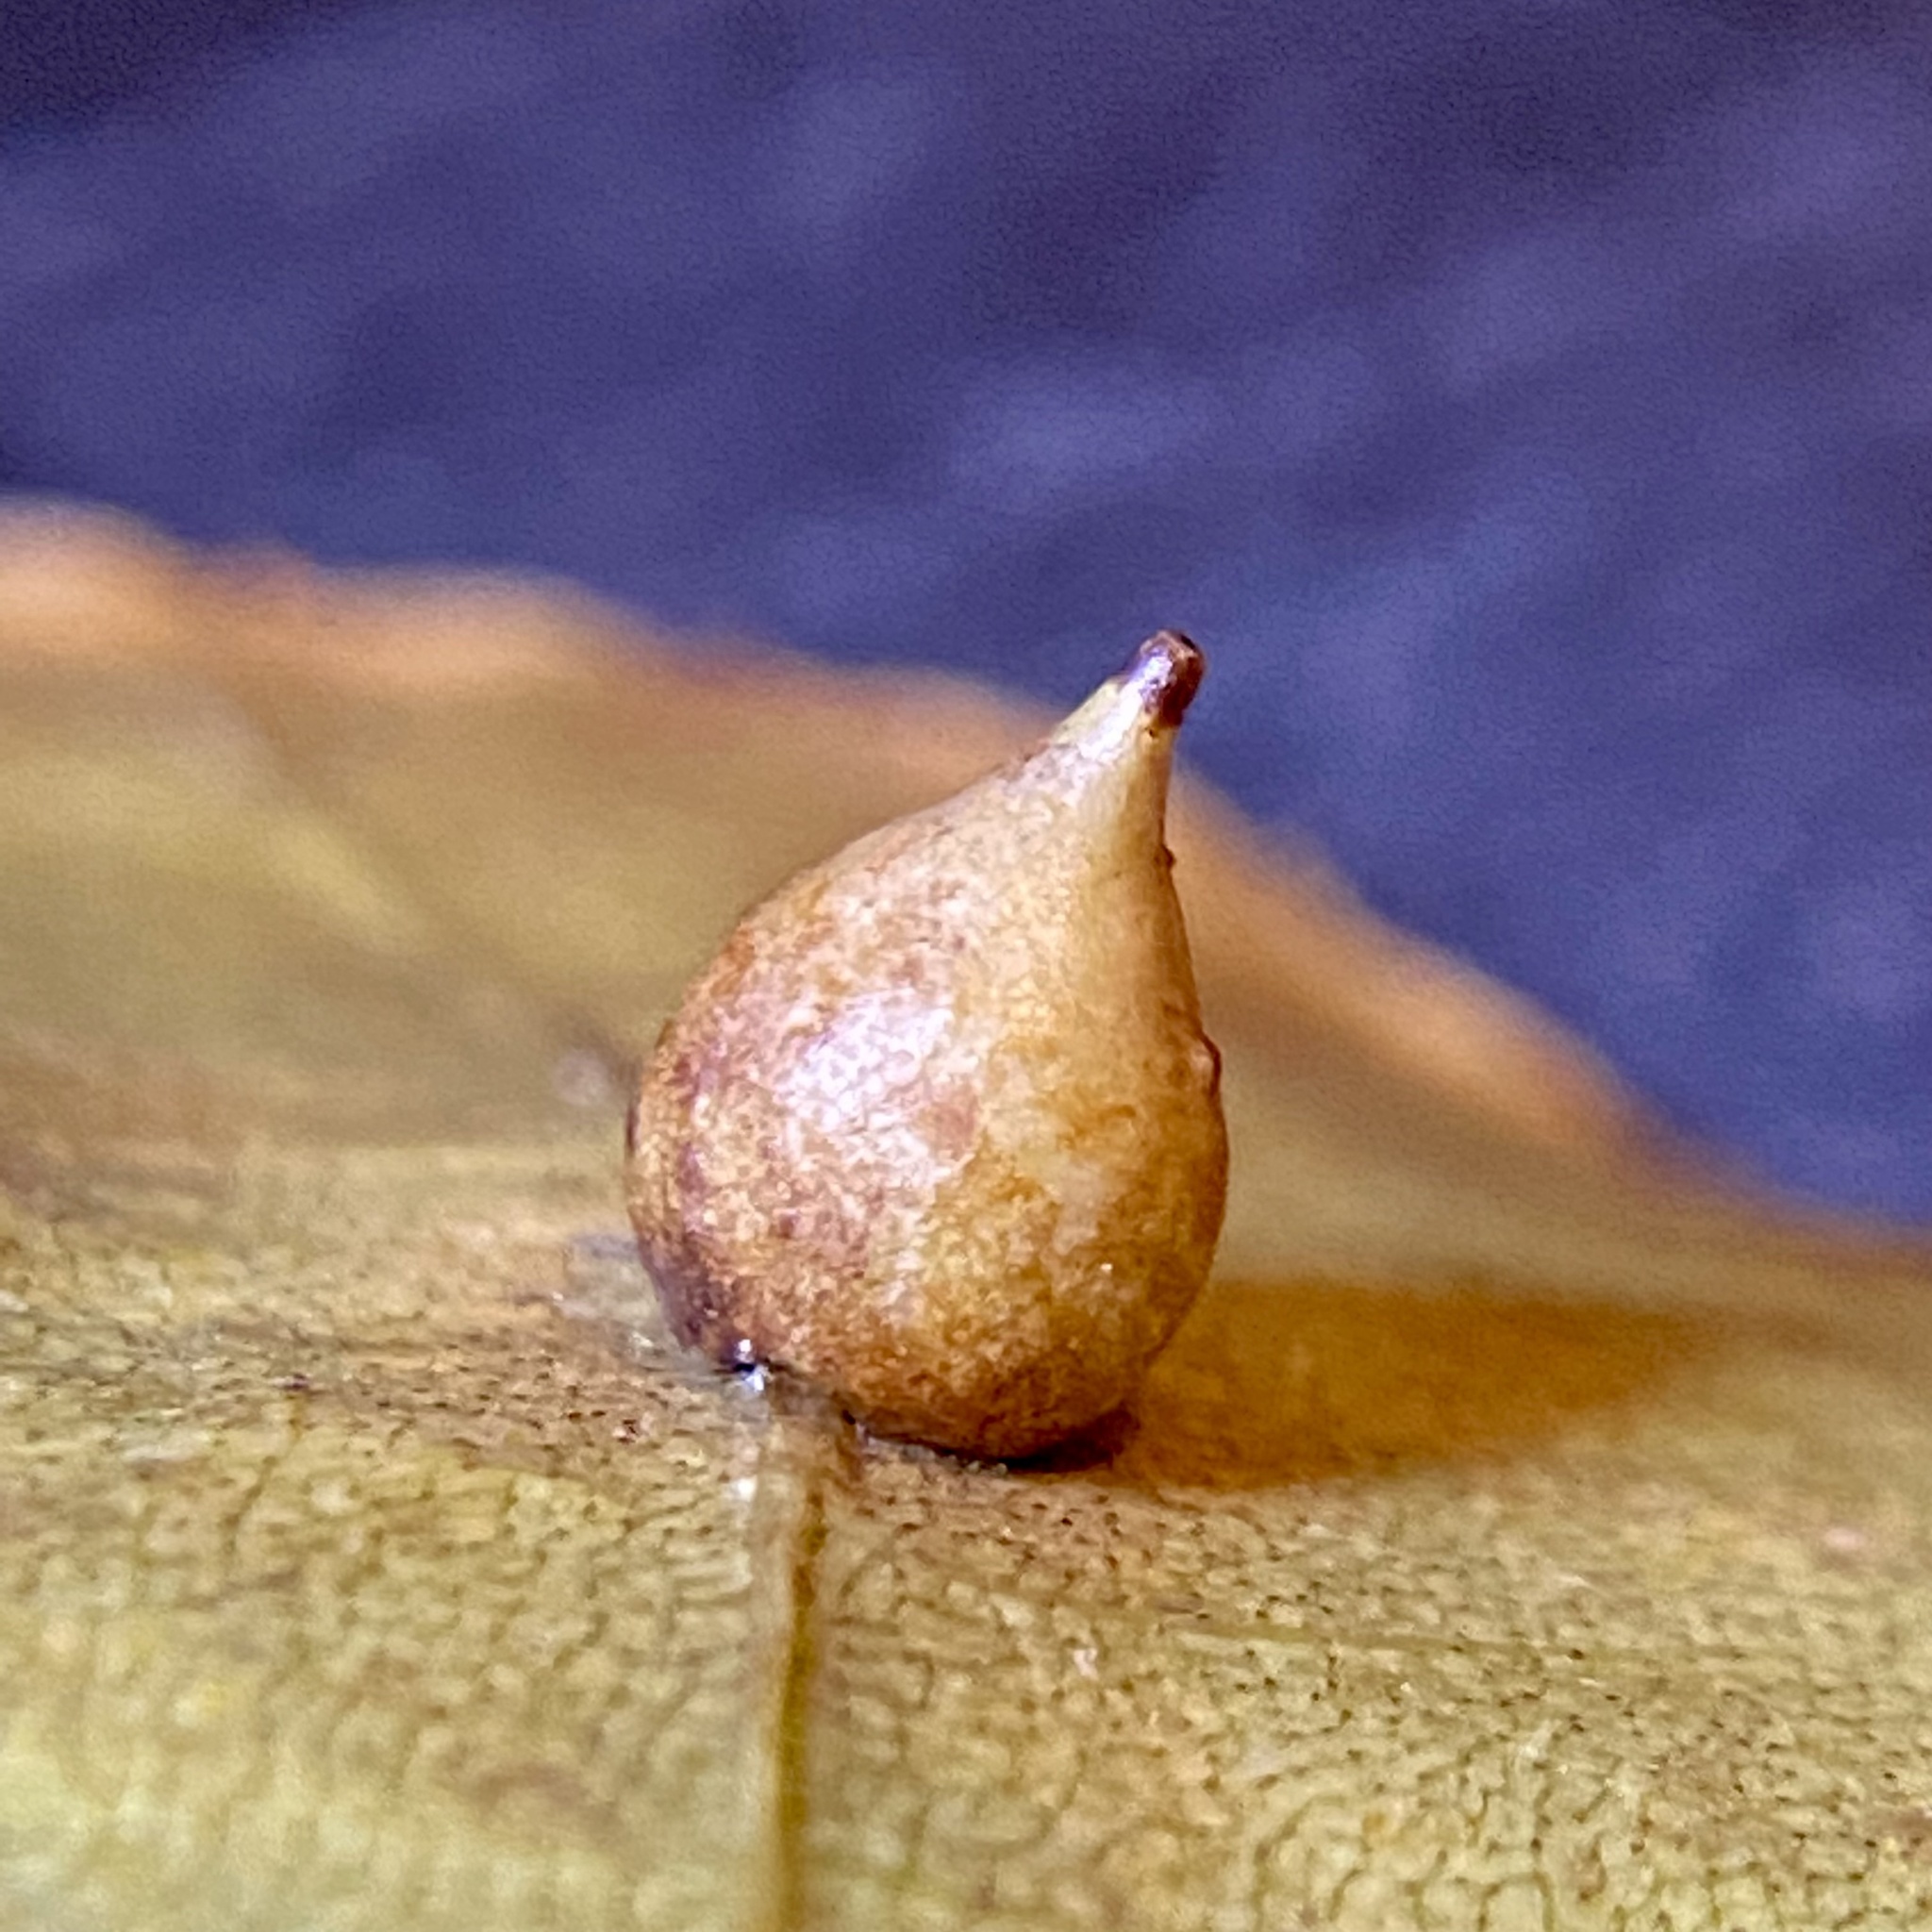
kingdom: Animalia
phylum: Arthropoda
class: Insecta
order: Diptera
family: Cecidomyiidae
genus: Caryomyia
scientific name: Caryomyia caryaecola
